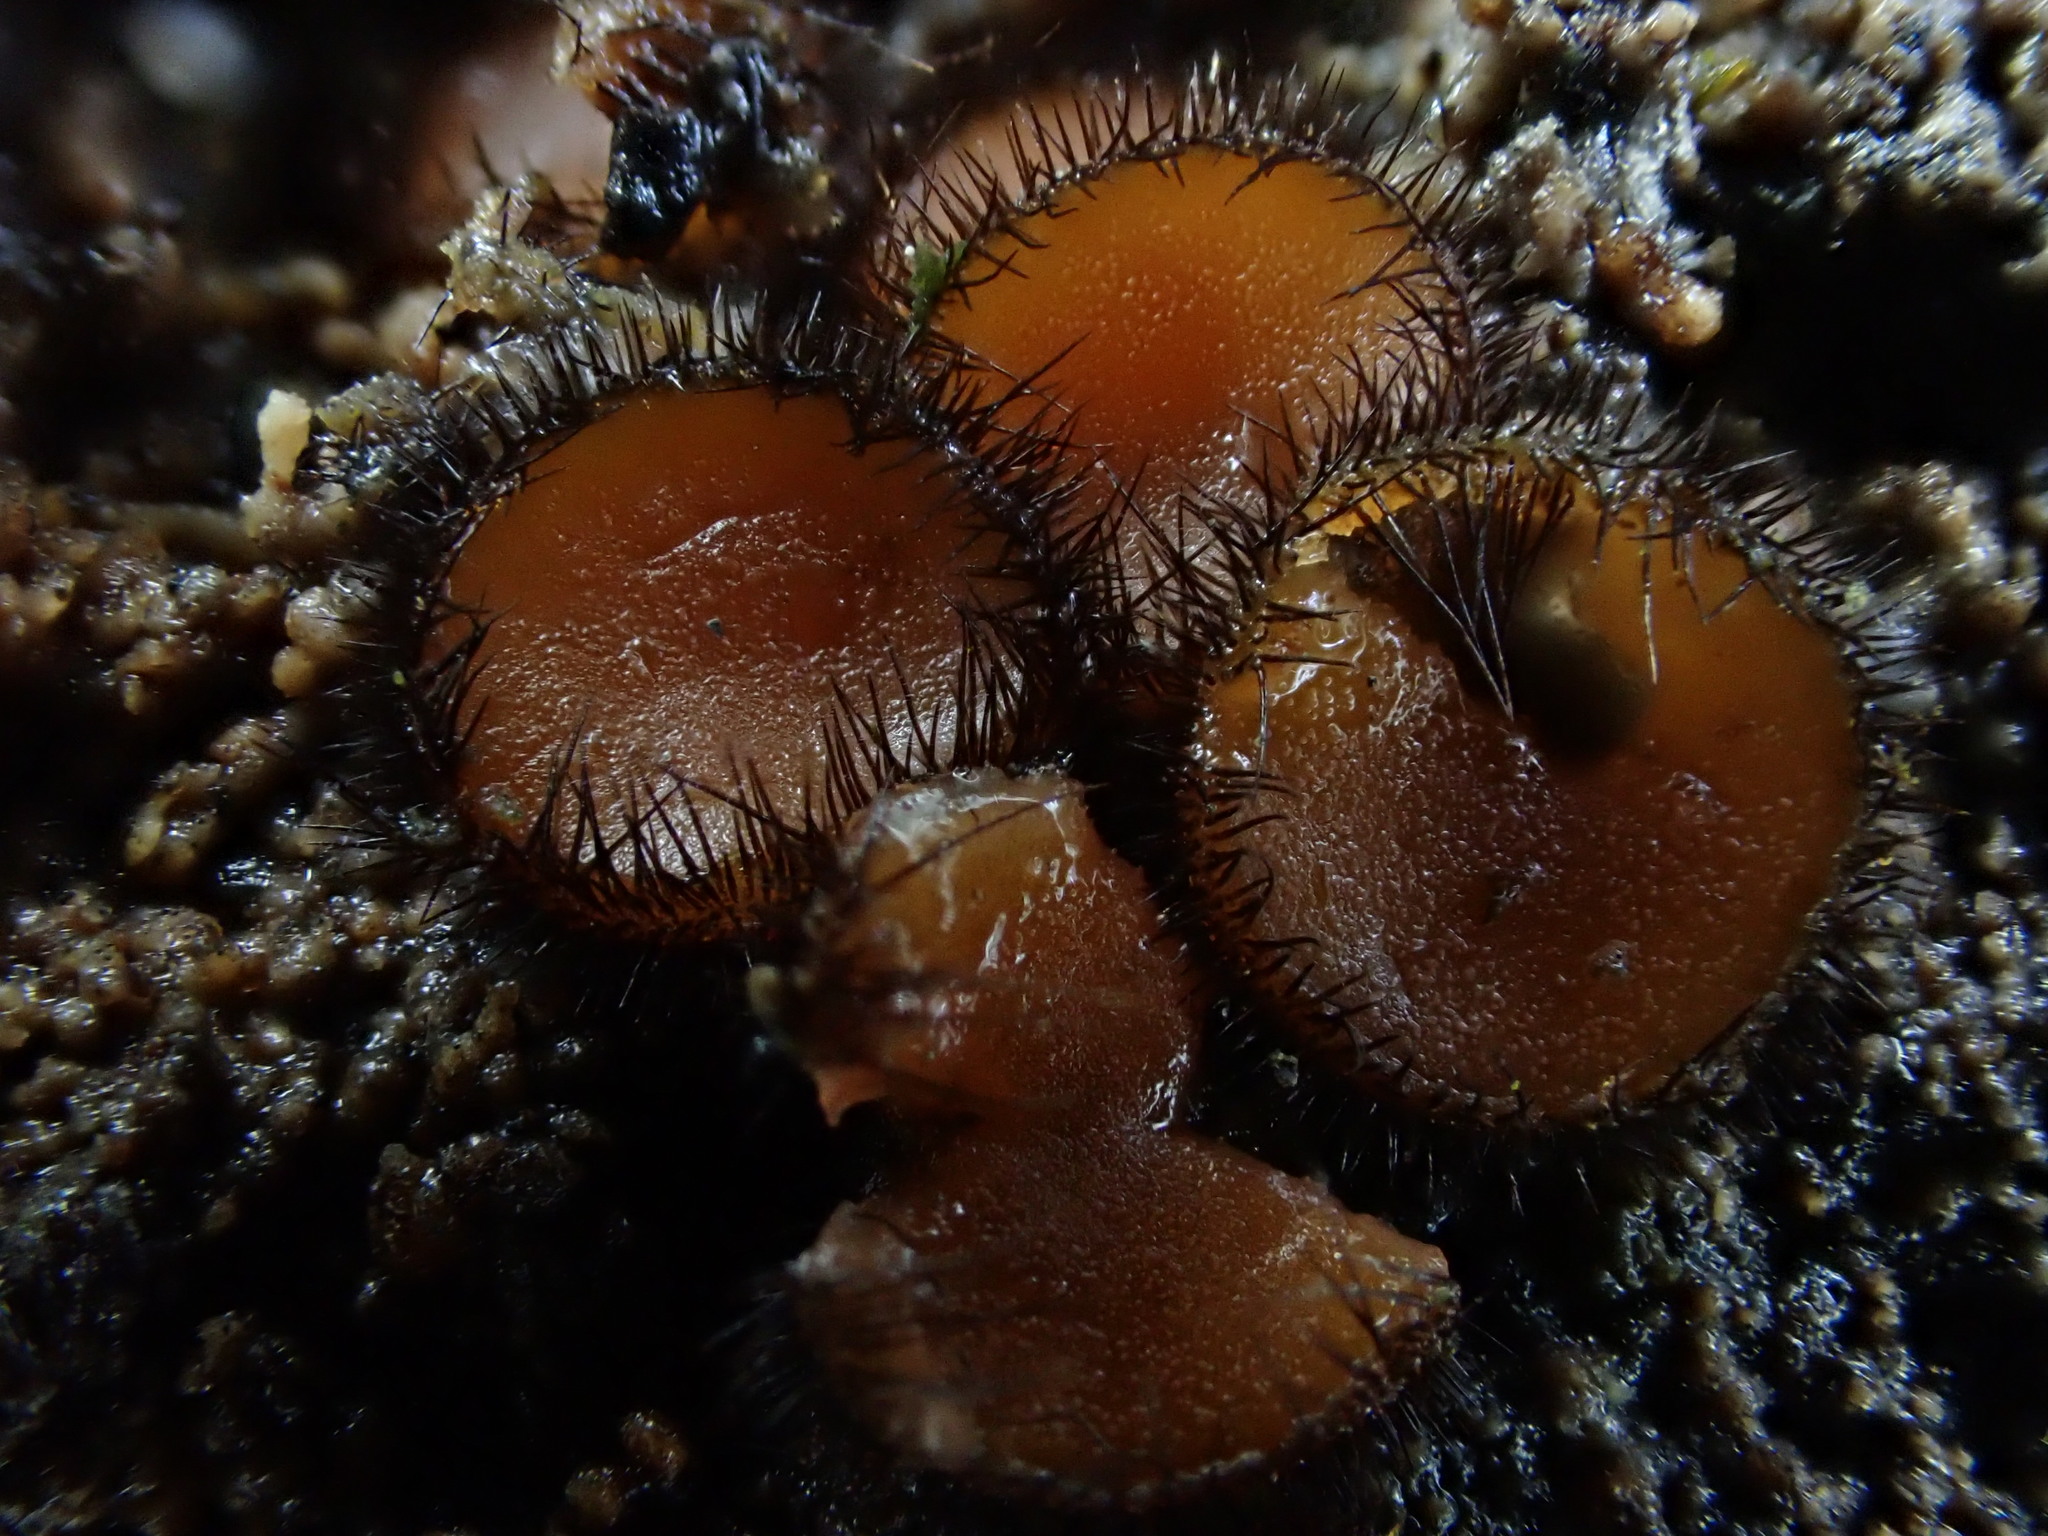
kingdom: Fungi
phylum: Ascomycota
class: Pezizomycetes
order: Pezizales
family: Pyronemataceae
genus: Scutellinia
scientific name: Scutellinia
